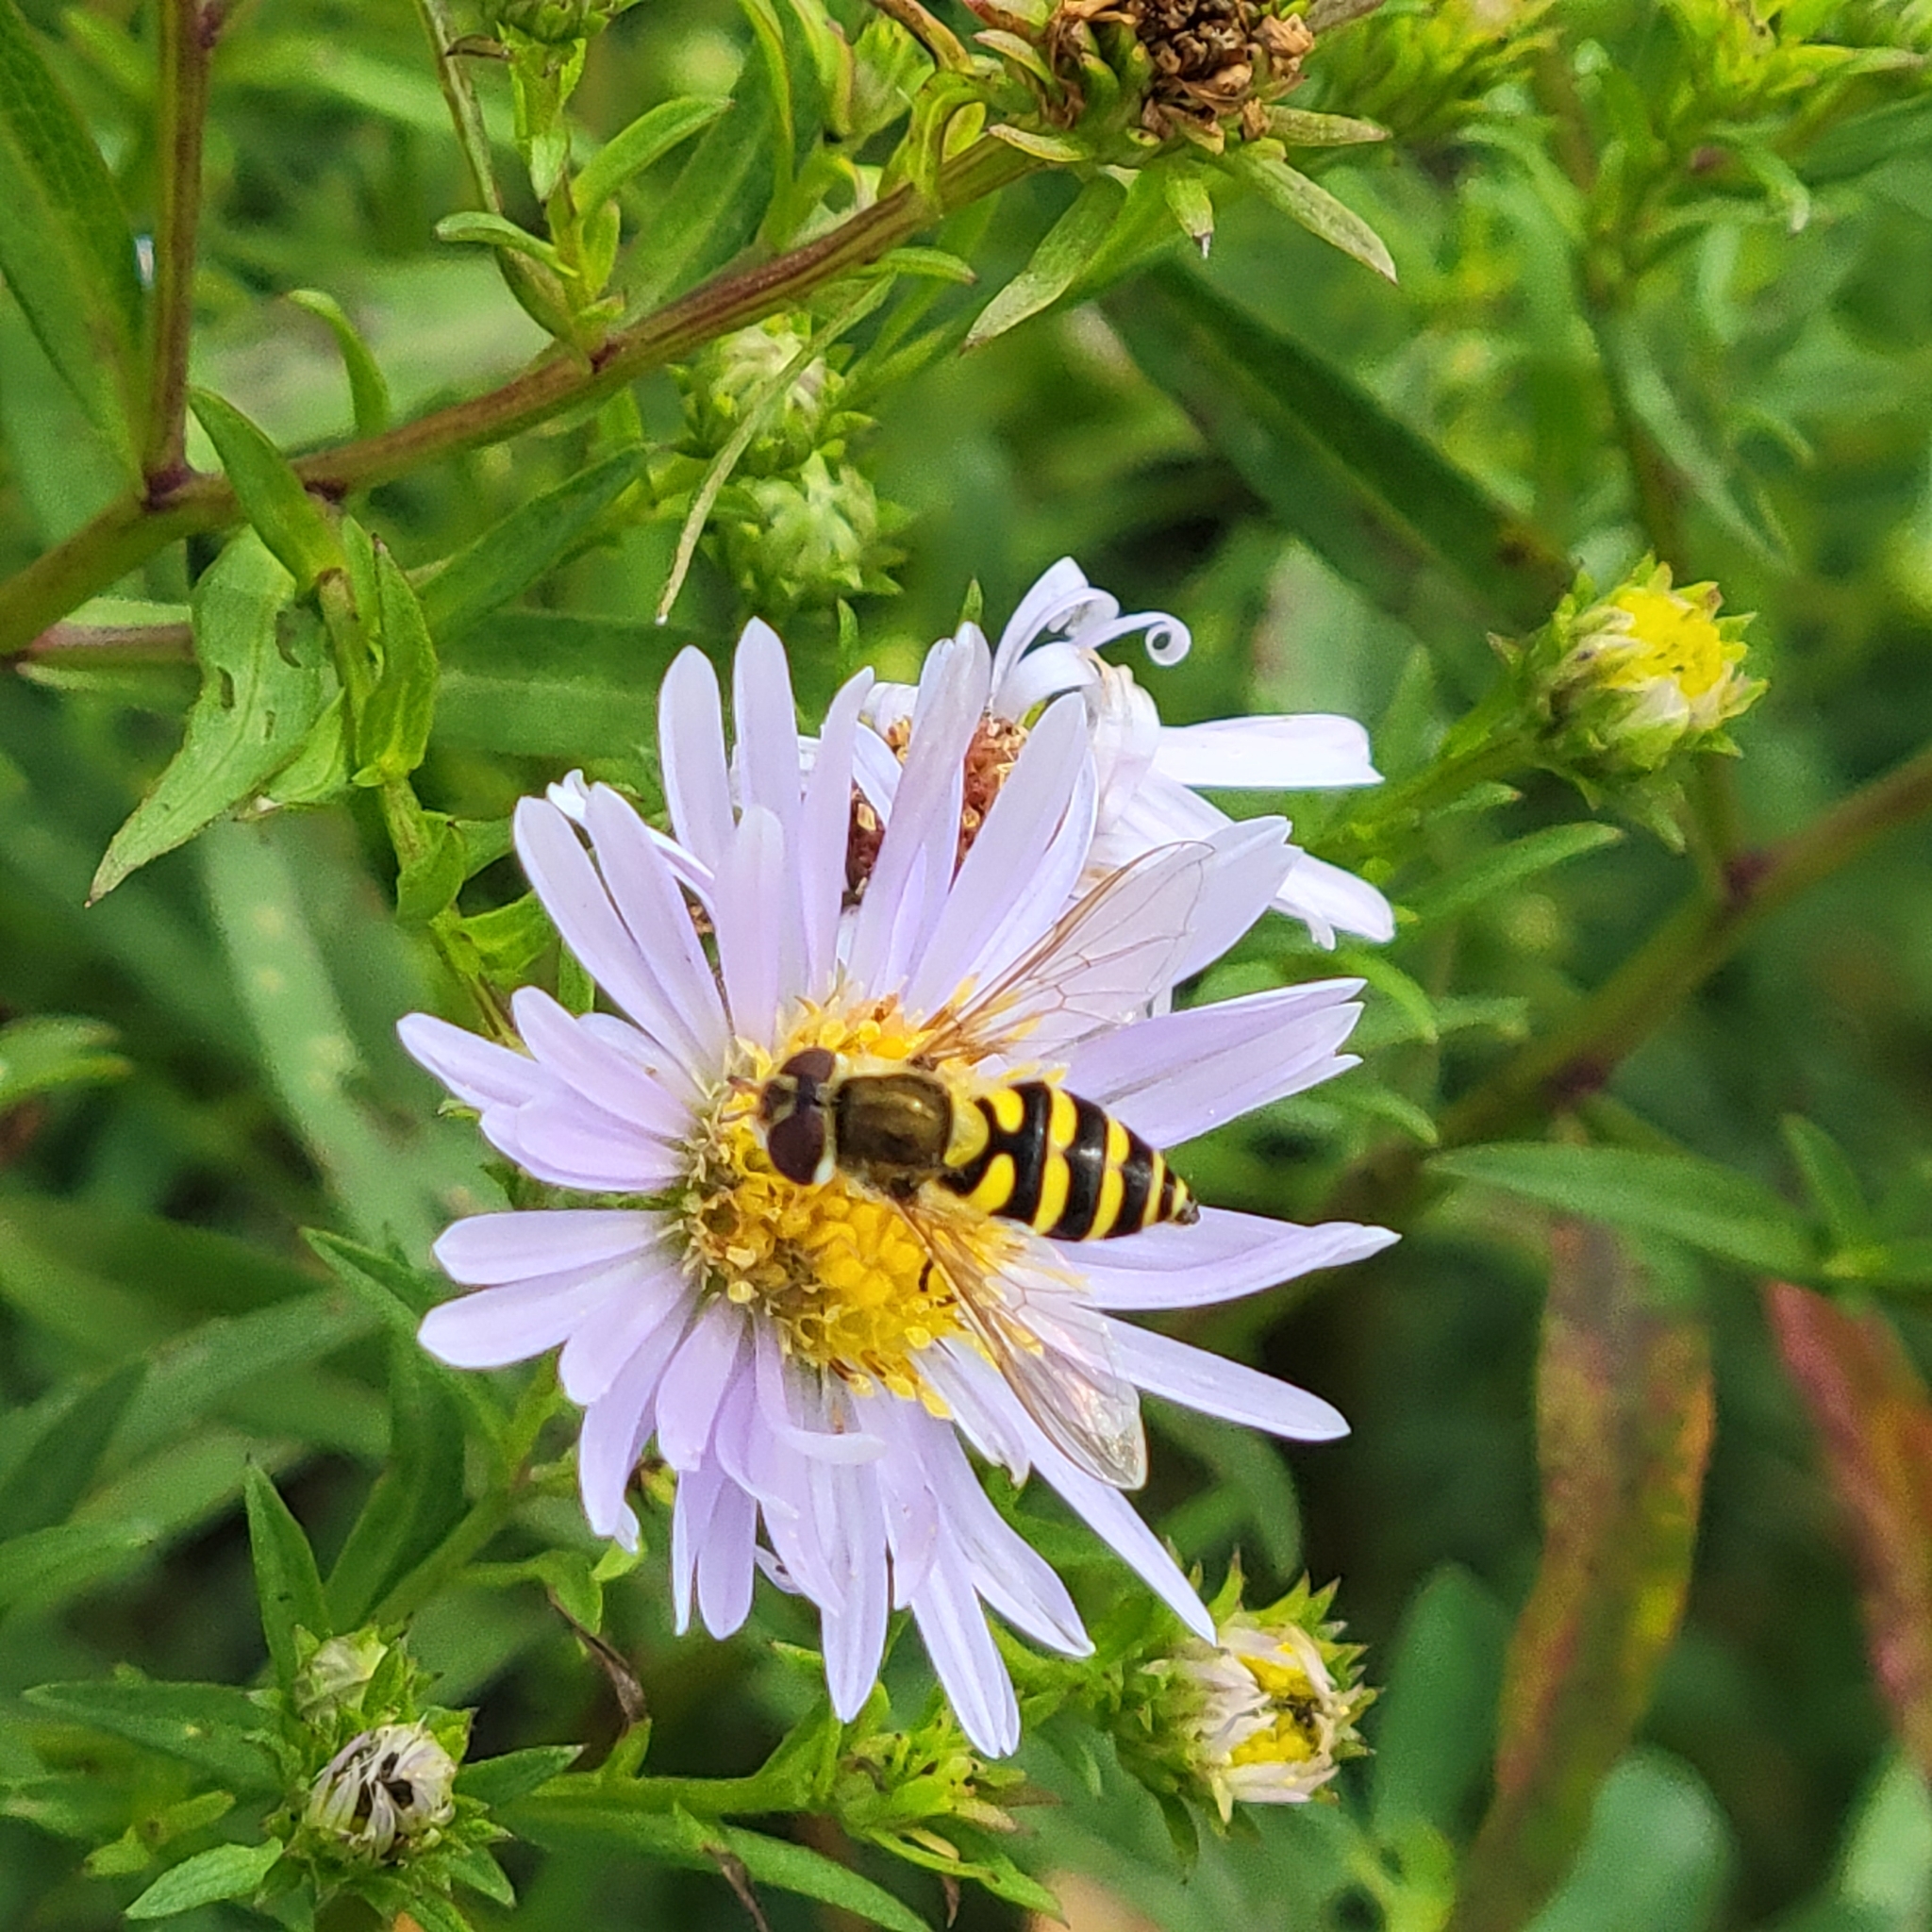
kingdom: Animalia
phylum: Arthropoda
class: Insecta
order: Diptera
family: Syrphidae
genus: Syrphus
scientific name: Syrphus
